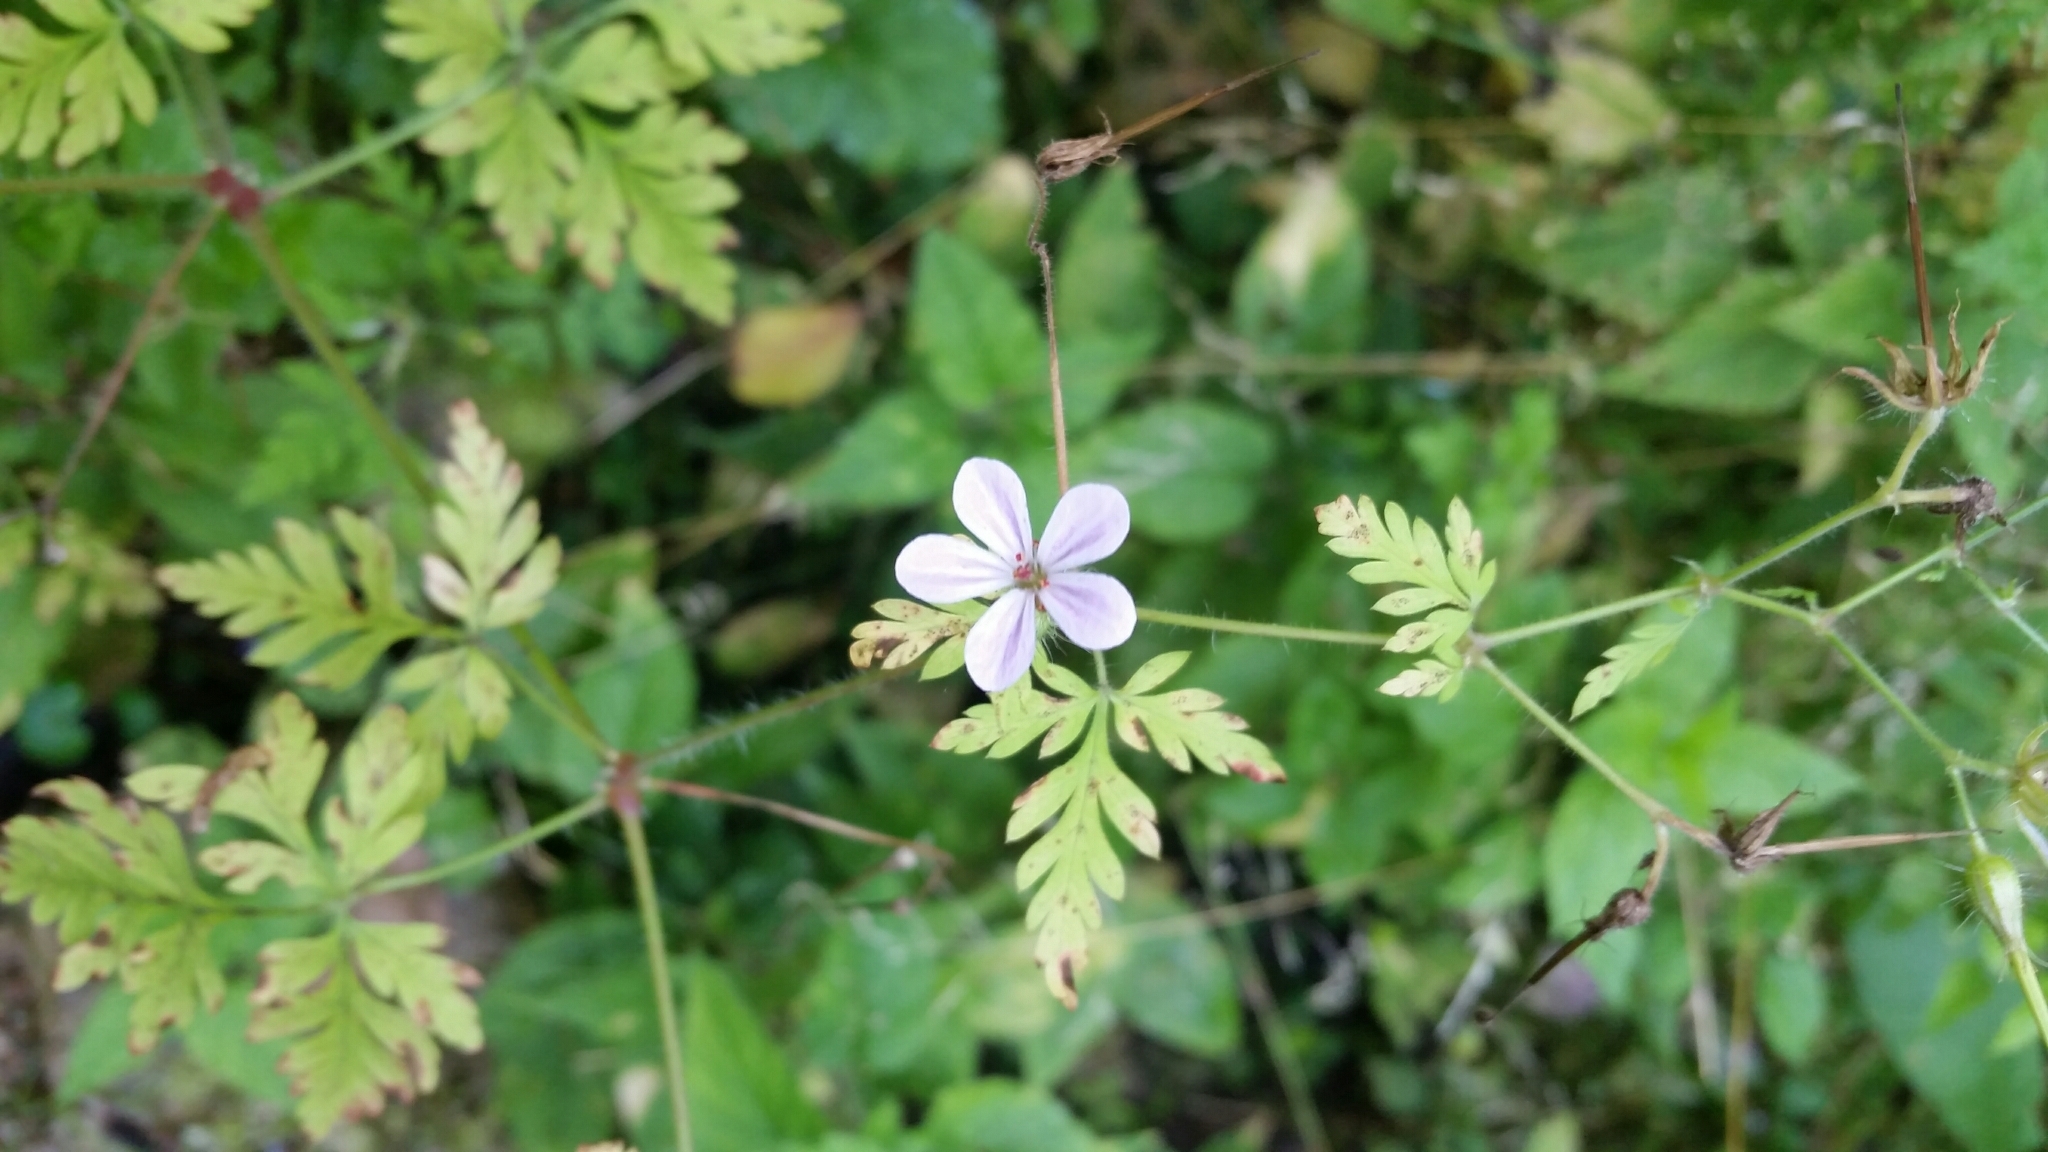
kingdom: Plantae
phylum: Tracheophyta
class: Magnoliopsida
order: Geraniales
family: Geraniaceae
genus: Geranium
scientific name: Geranium robertianum
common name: Herb-robert
